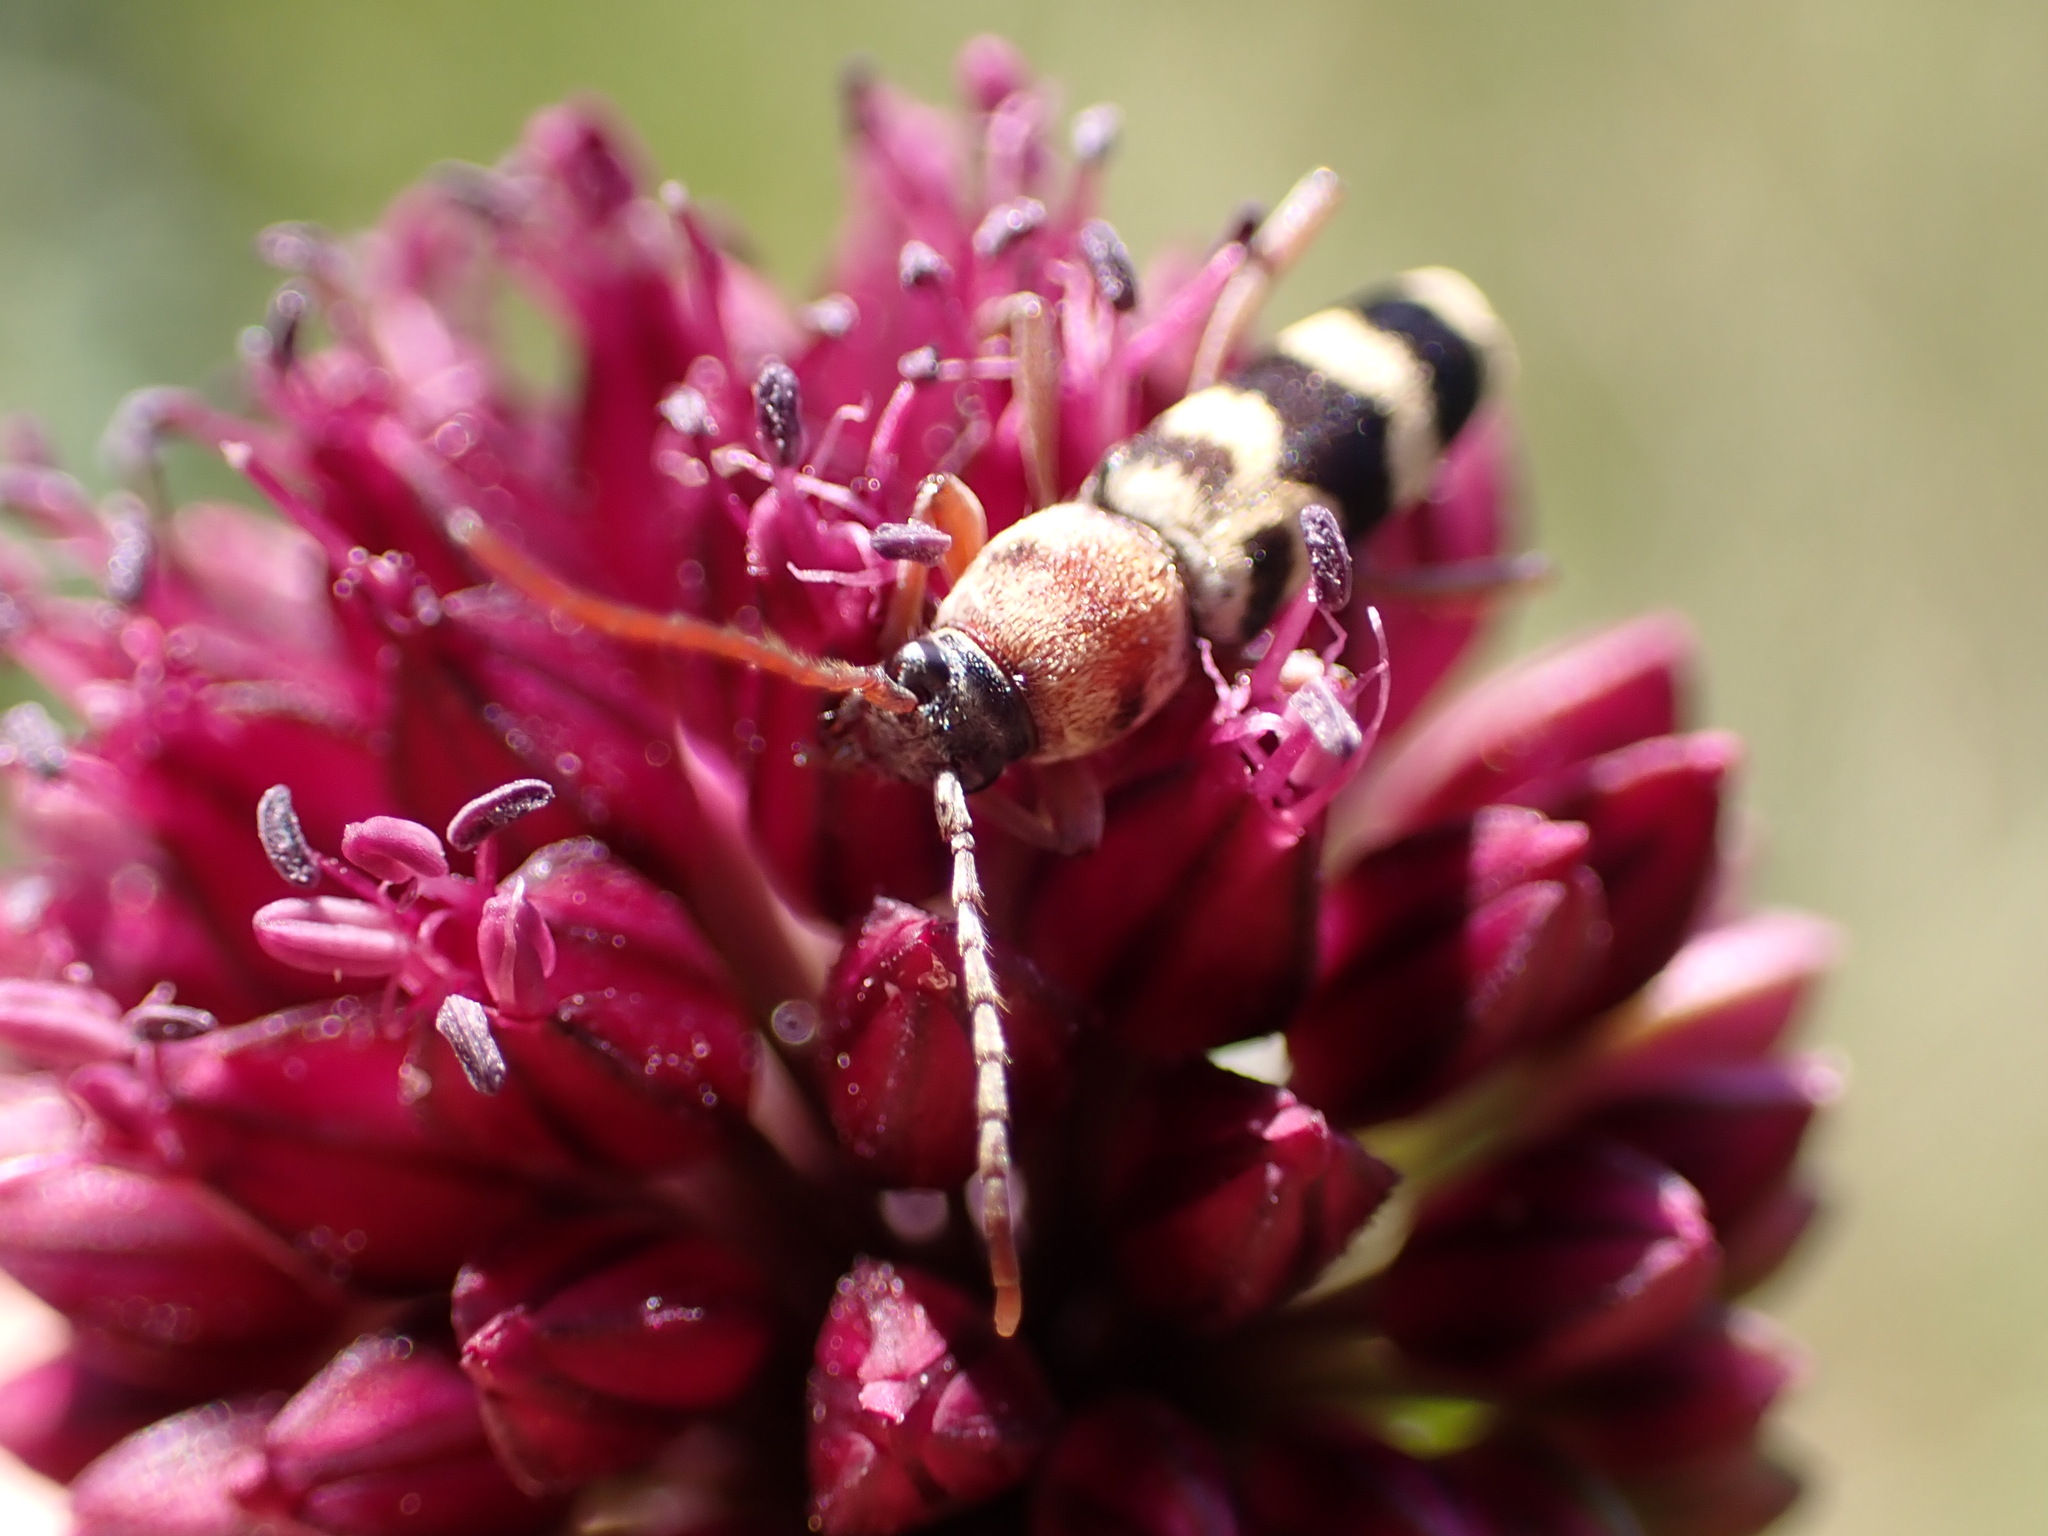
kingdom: Animalia
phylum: Arthropoda
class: Insecta
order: Coleoptera
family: Cerambycidae
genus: Chlorophorus
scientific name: Chlorophorus trifasciatus
